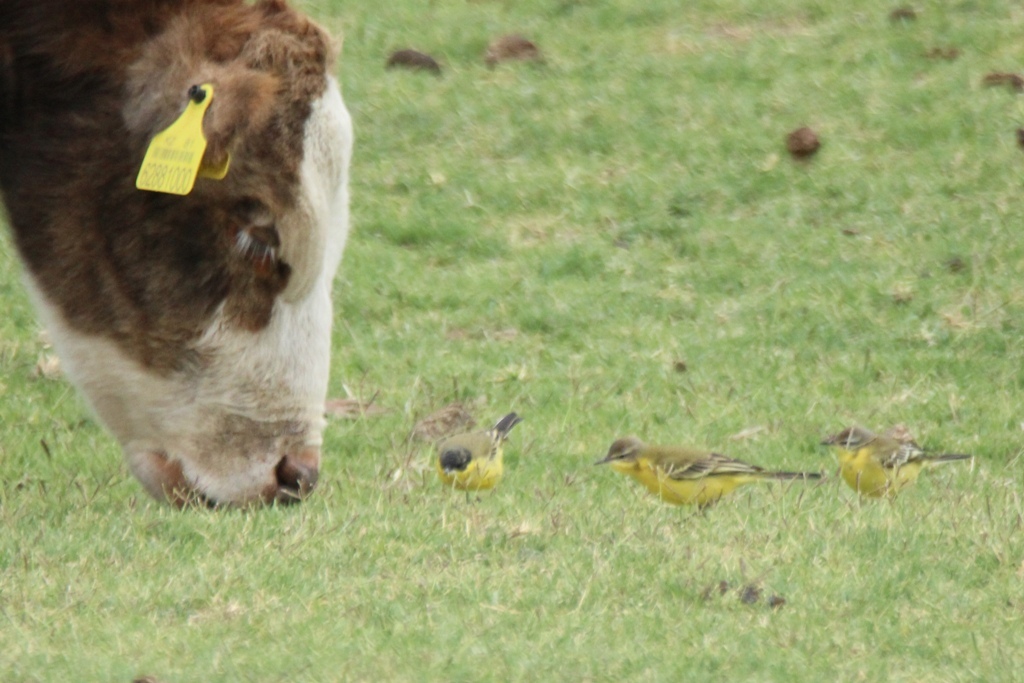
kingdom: Animalia
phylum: Chordata
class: Aves
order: Passeriformes
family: Motacillidae
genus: Motacilla
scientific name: Motacilla flava
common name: Western yellow wagtail
